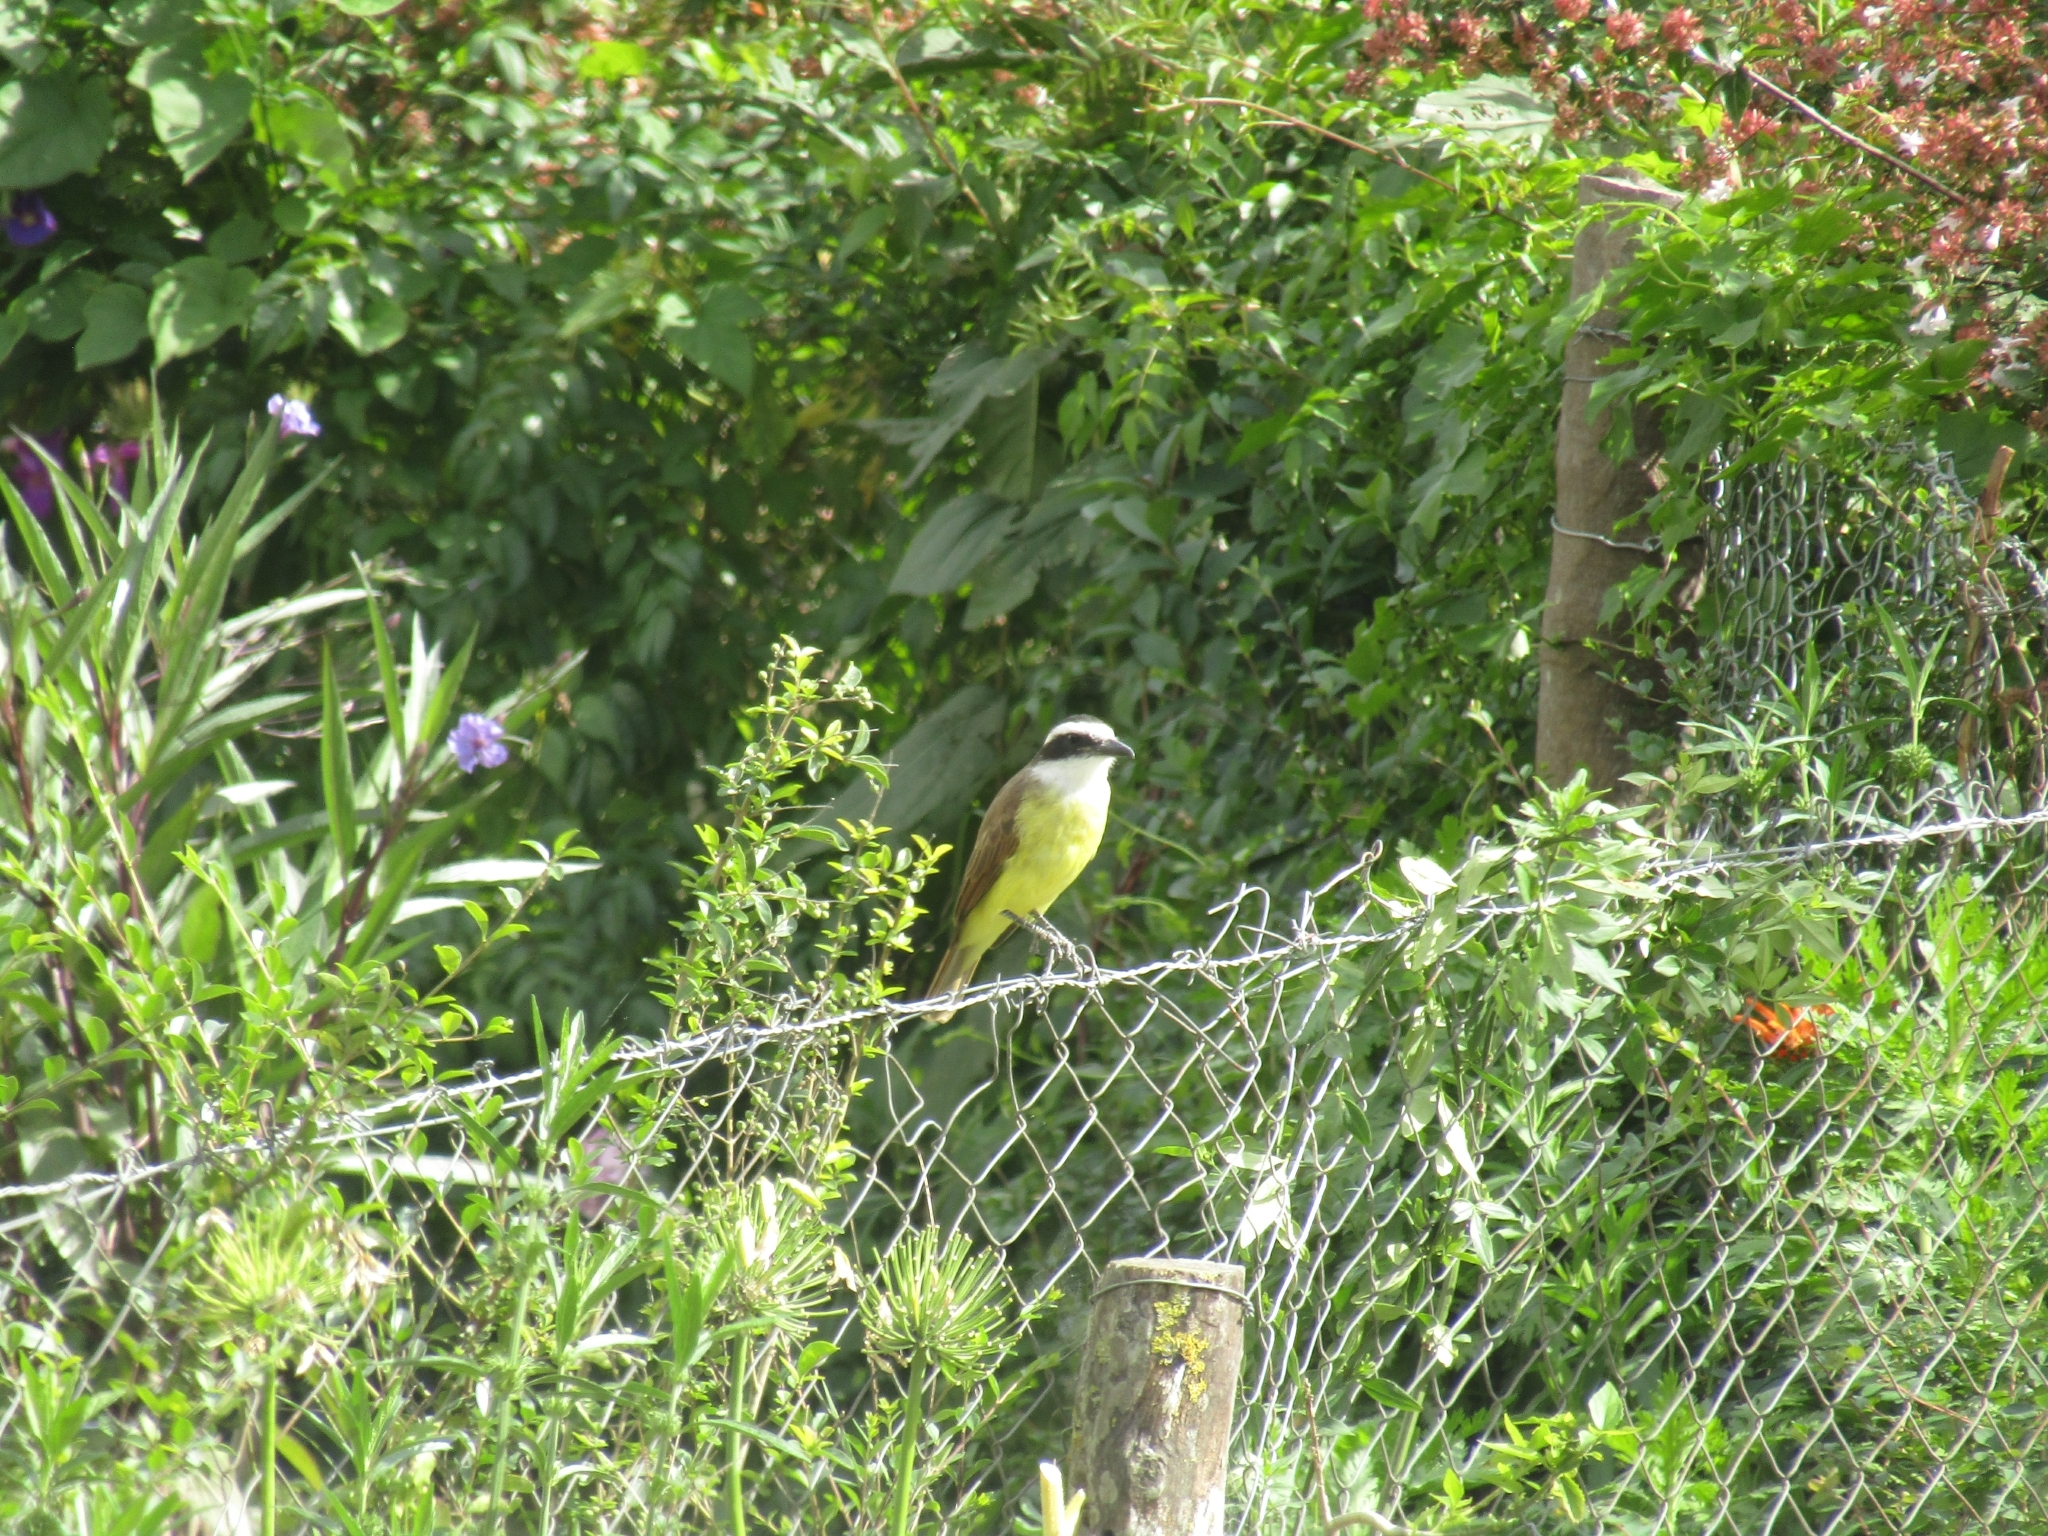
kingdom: Animalia
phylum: Chordata
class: Aves
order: Passeriformes
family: Tyrannidae
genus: Pitangus
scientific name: Pitangus sulphuratus
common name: Great kiskadee
